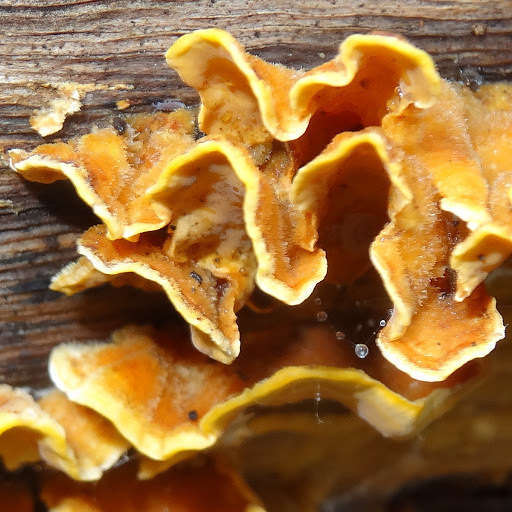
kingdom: Fungi
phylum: Basidiomycota
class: Agaricomycetes
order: Russulales
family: Stereaceae
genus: Stereum
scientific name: Stereum hirsutum
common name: Hairy curtain crust
